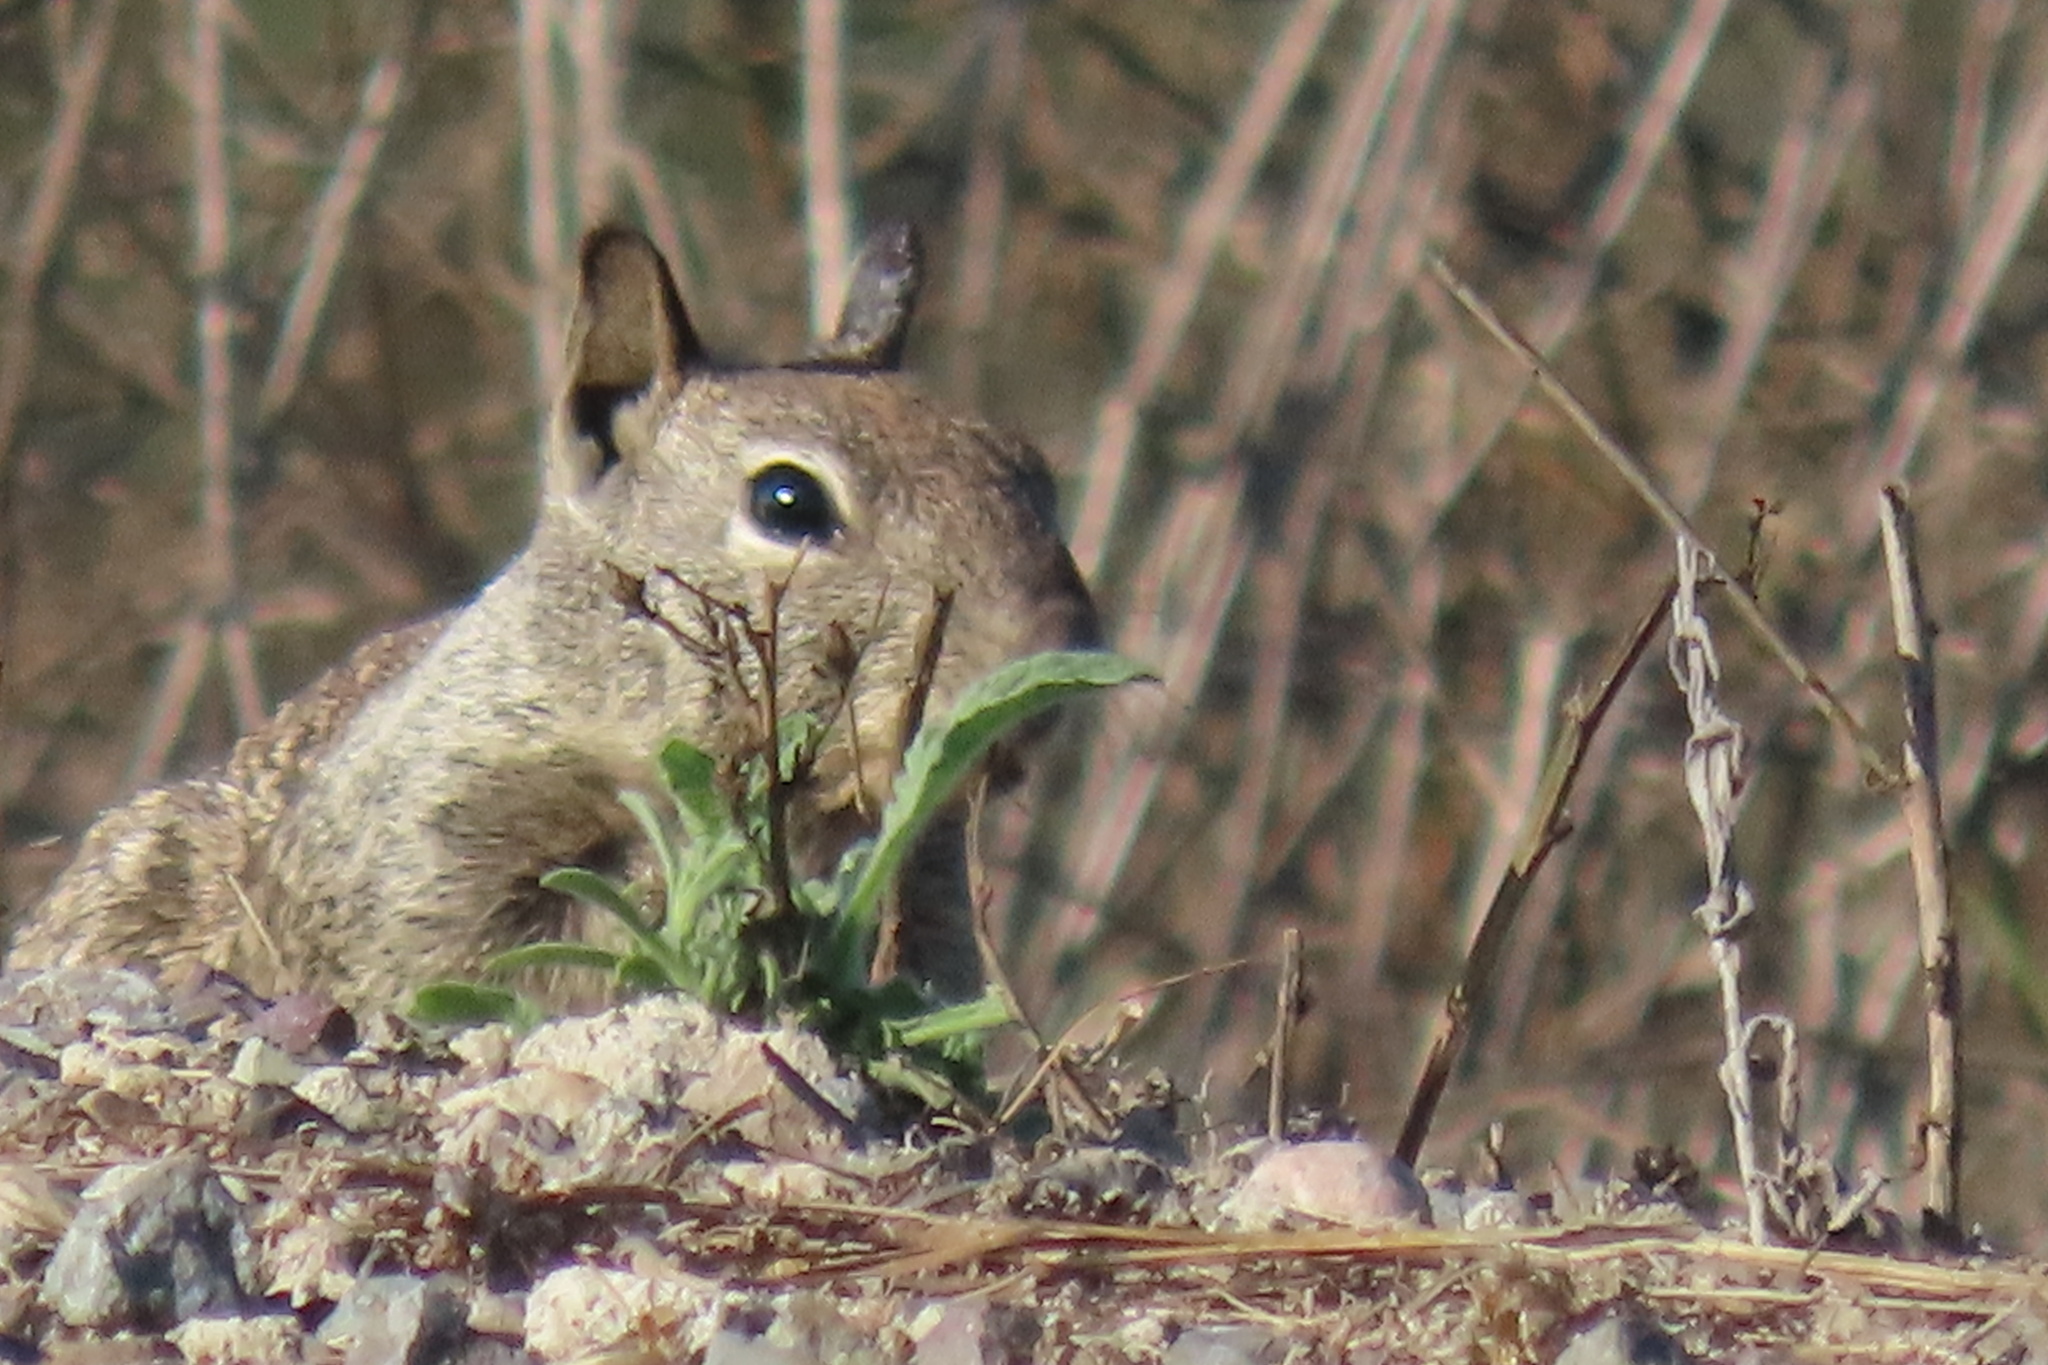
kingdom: Animalia
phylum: Chordata
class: Mammalia
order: Rodentia
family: Sciuridae
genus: Otospermophilus
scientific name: Otospermophilus beecheyi
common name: California ground squirrel
